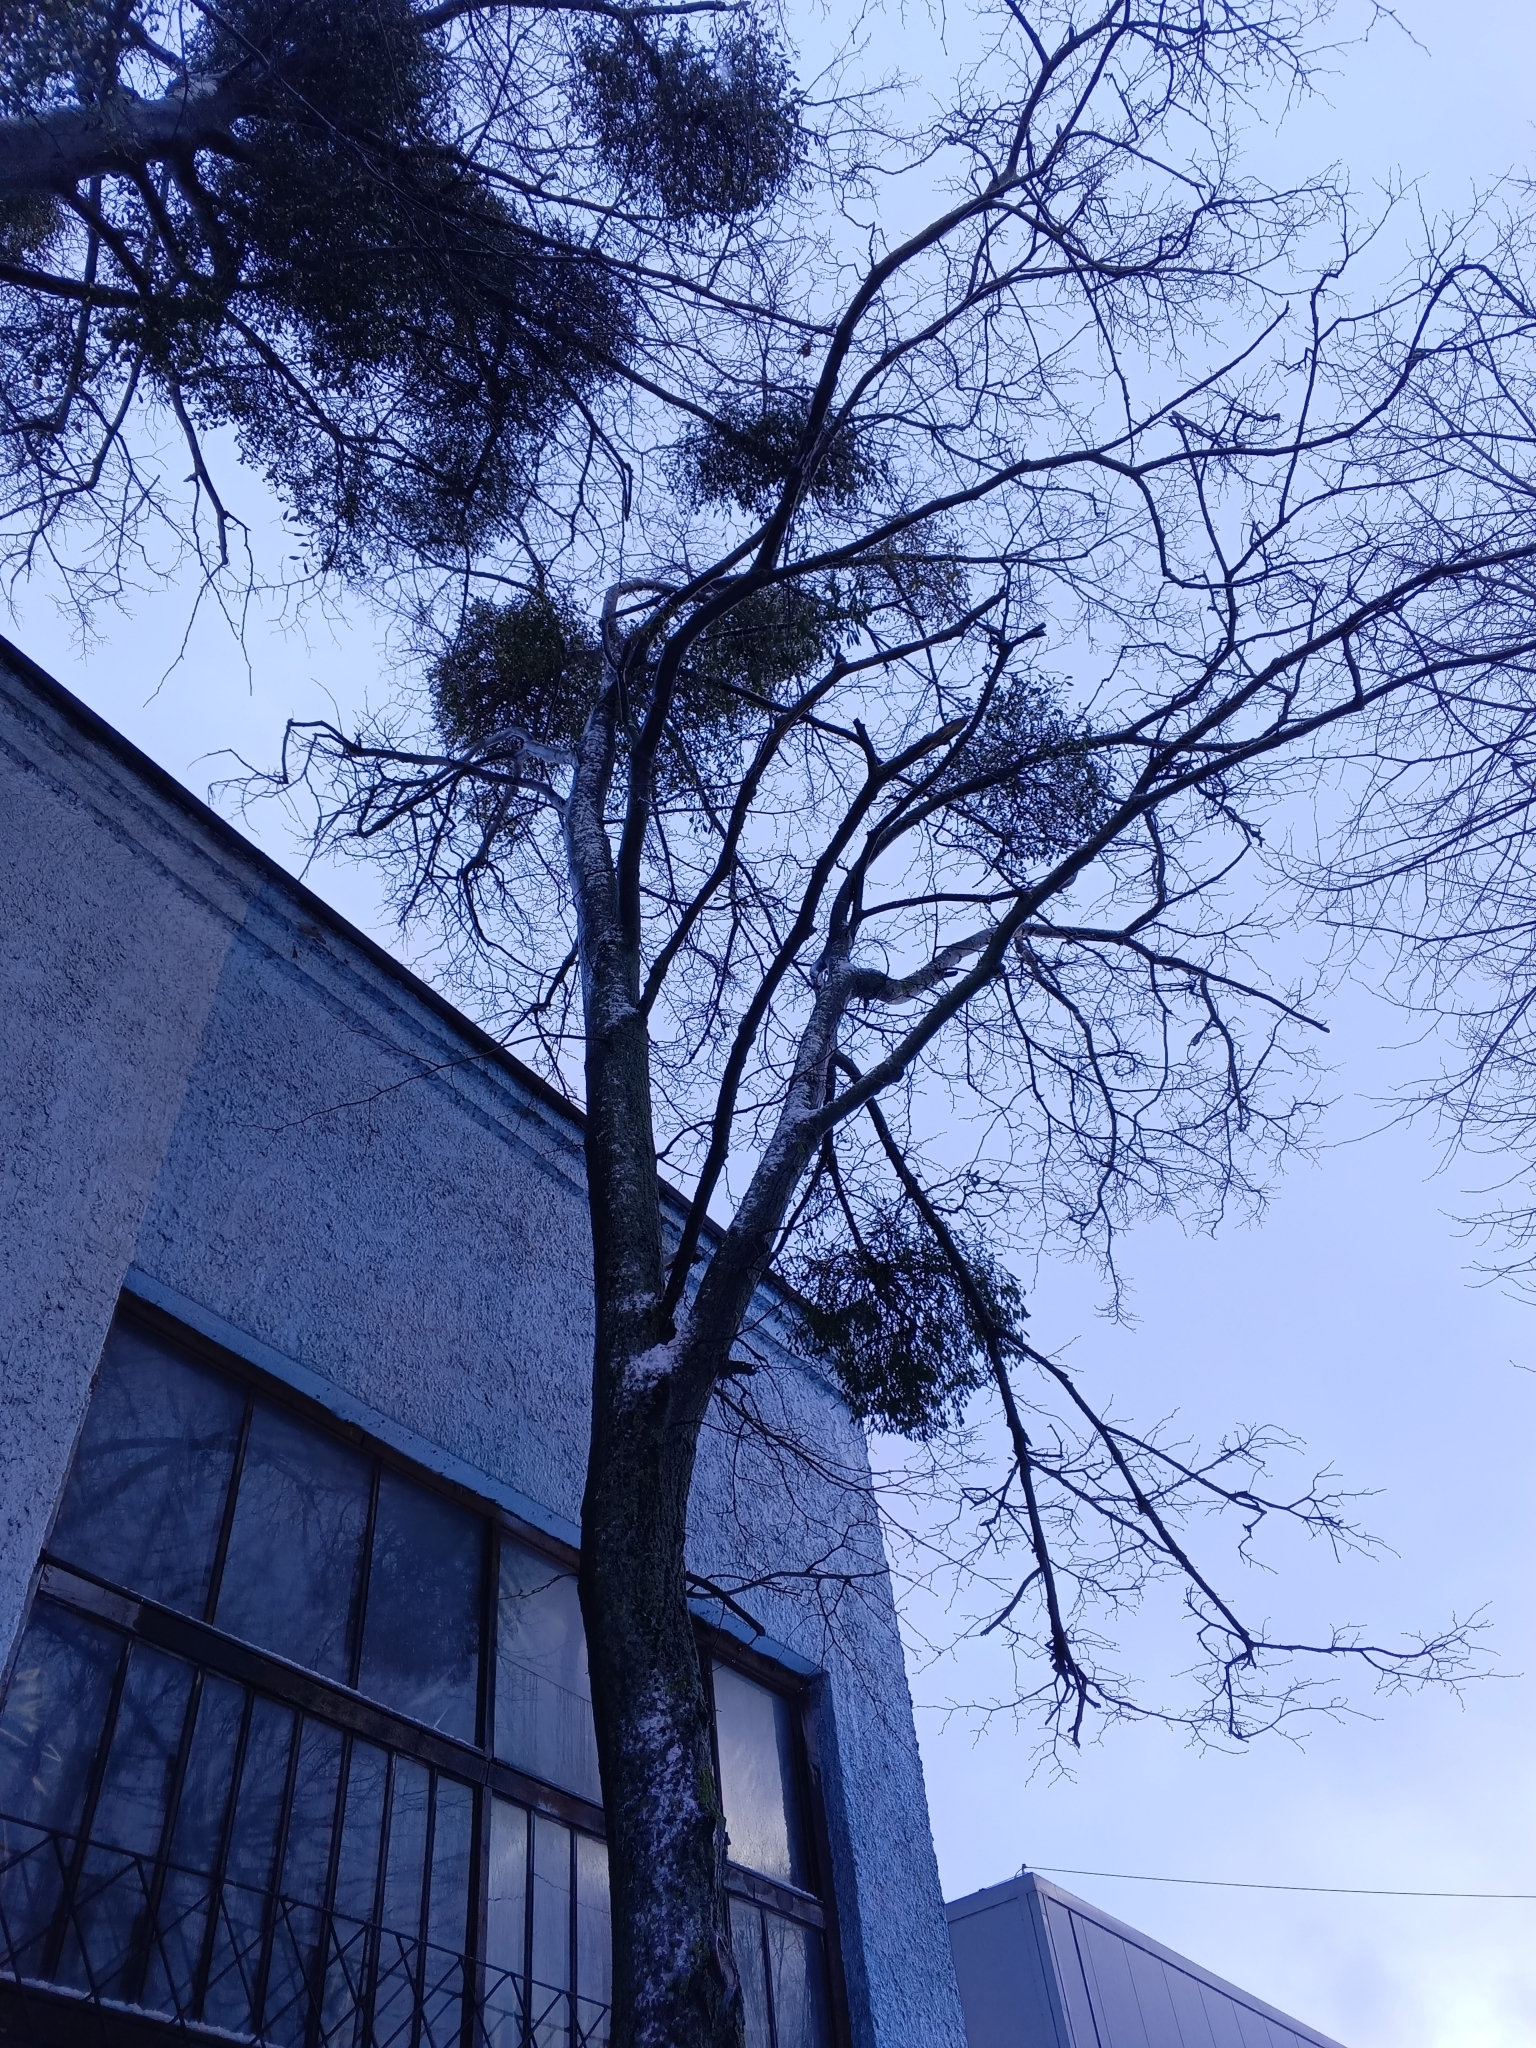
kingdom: Plantae
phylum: Tracheophyta
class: Magnoliopsida
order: Santalales
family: Viscaceae
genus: Viscum
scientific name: Viscum album
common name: Mistletoe
